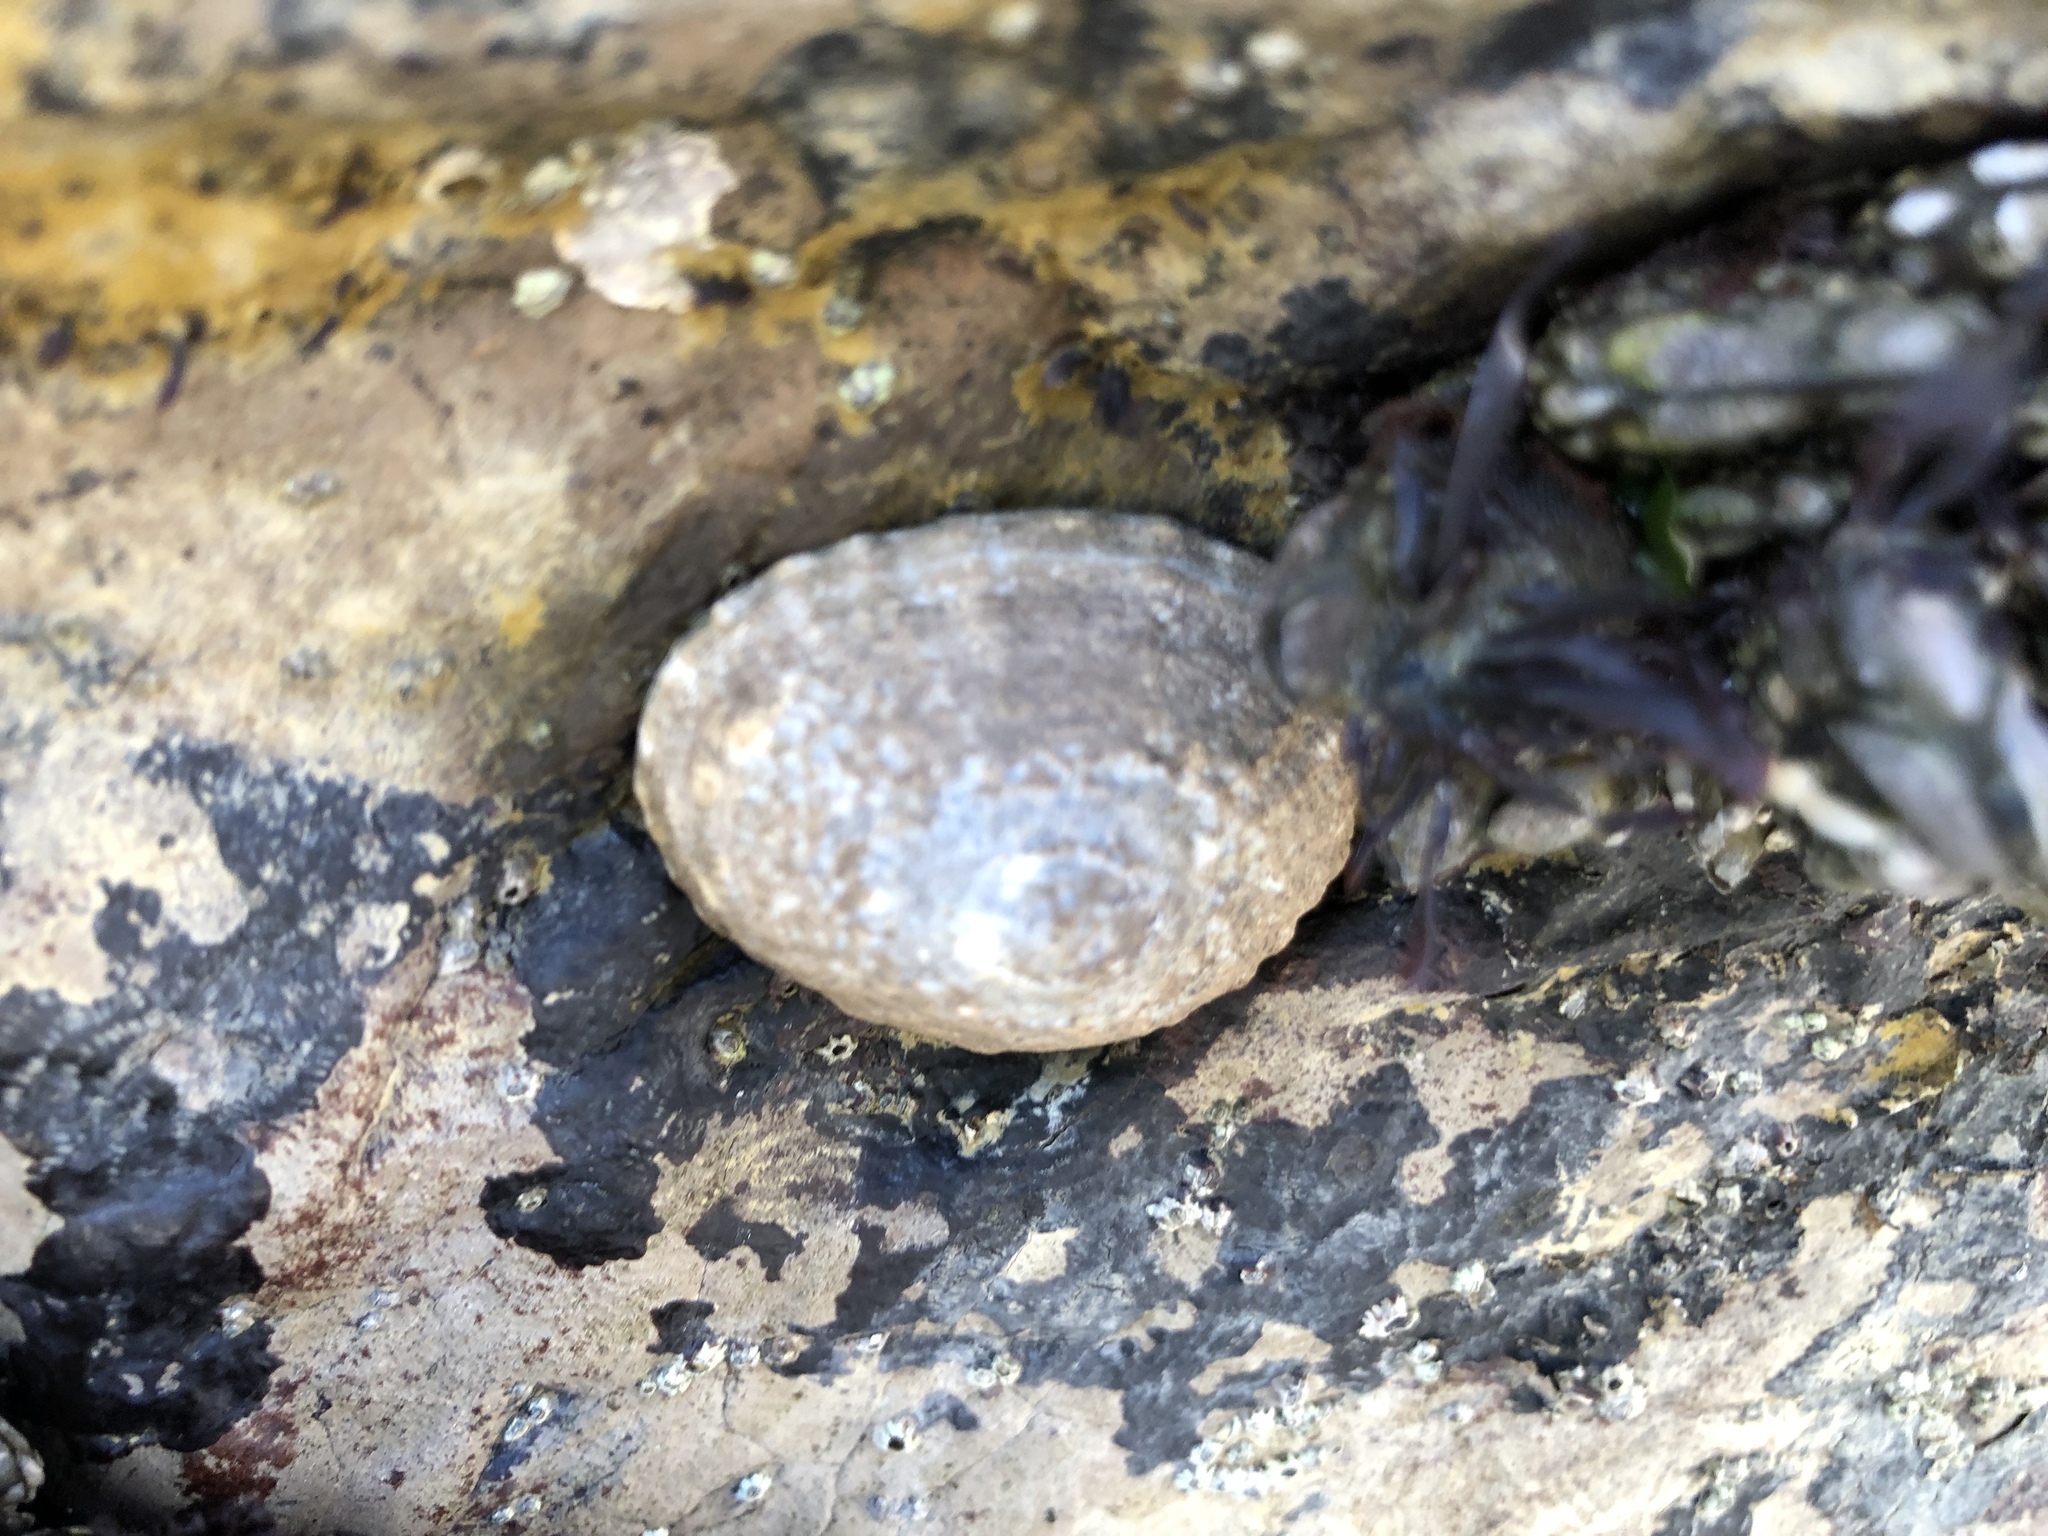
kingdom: Animalia
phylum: Mollusca
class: Gastropoda
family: Lottiidae
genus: Lottia
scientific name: Lottia pelta
